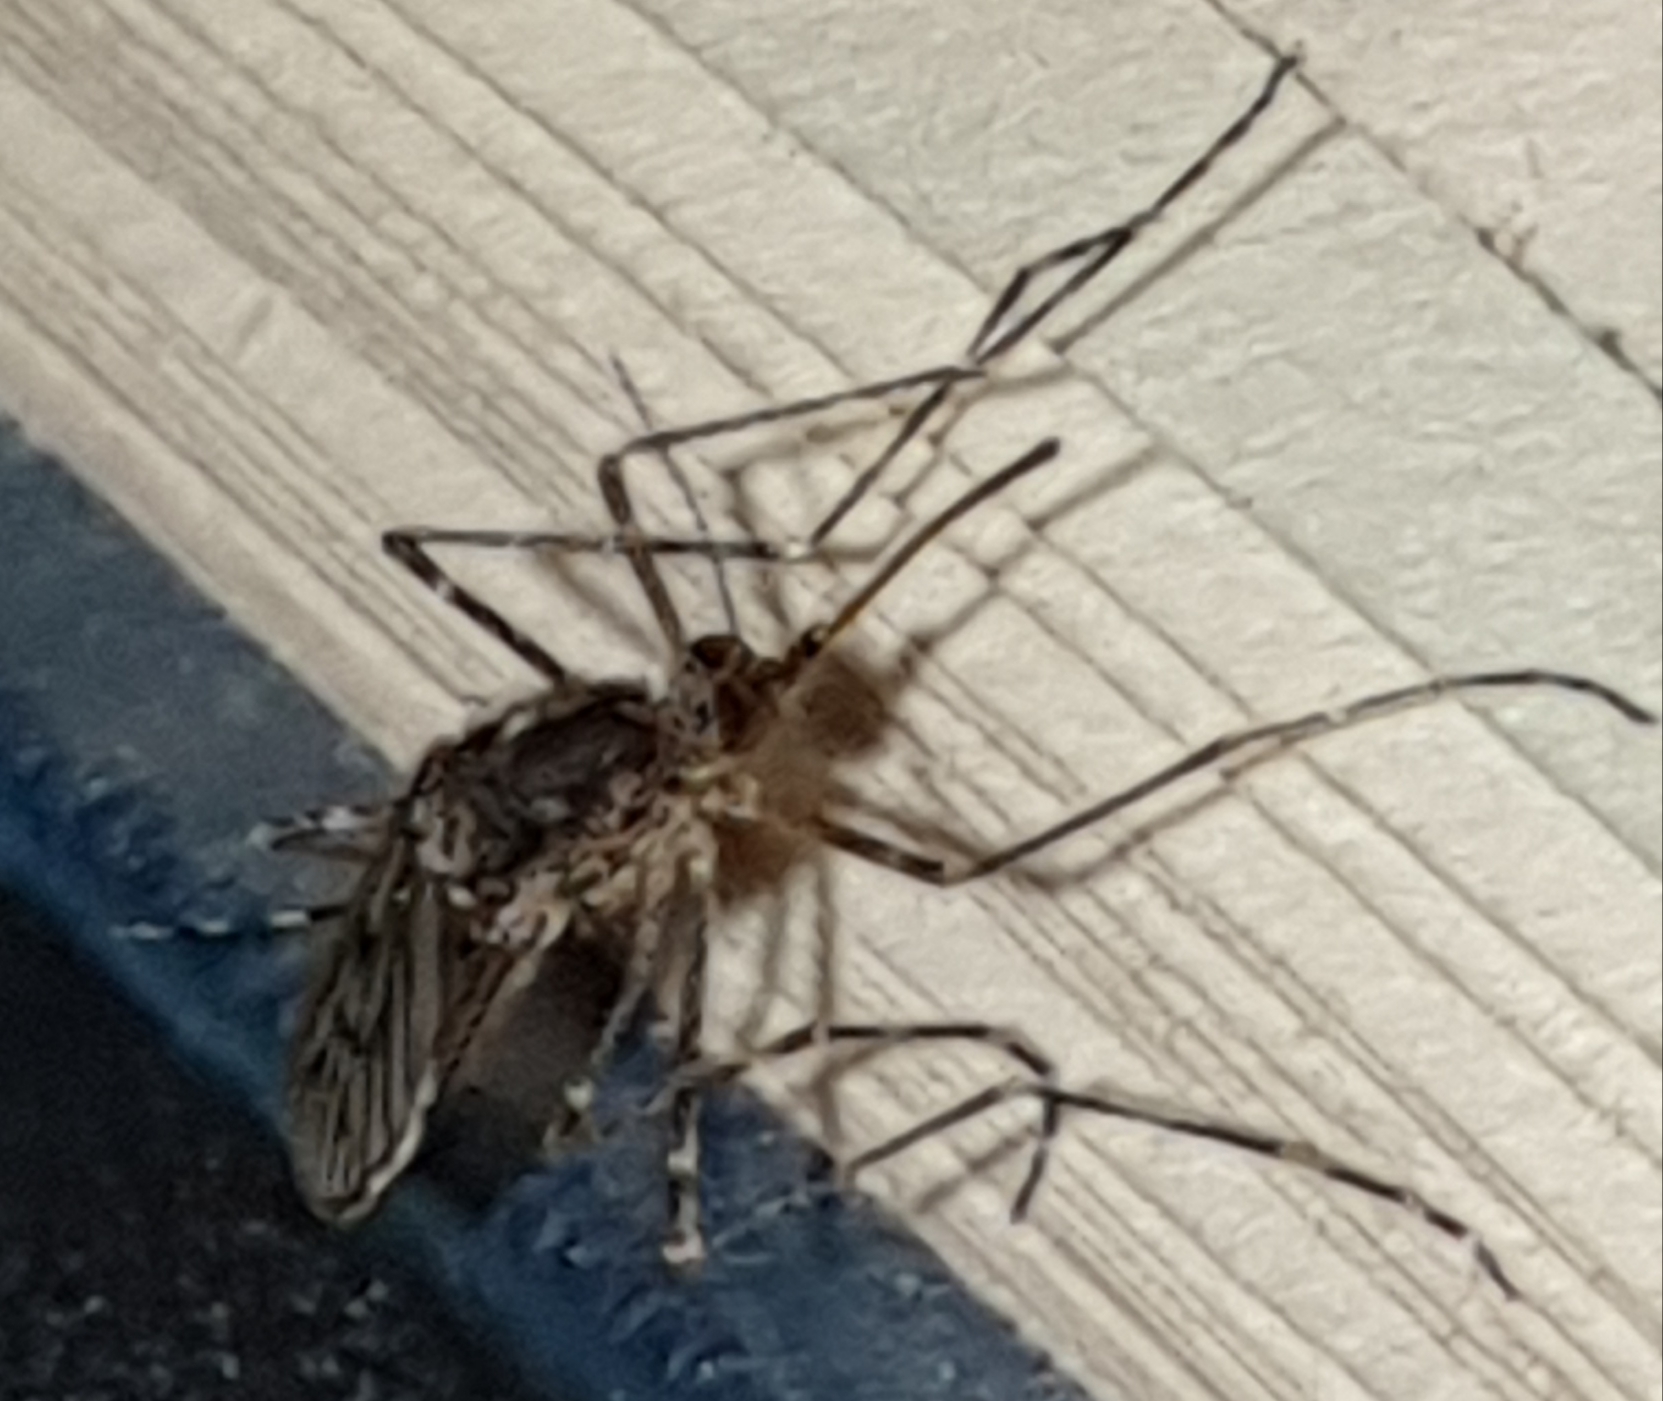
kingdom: Animalia
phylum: Arthropoda
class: Insecta
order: Diptera
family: Culicidae
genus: Culiseta
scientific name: Culiseta annulata
